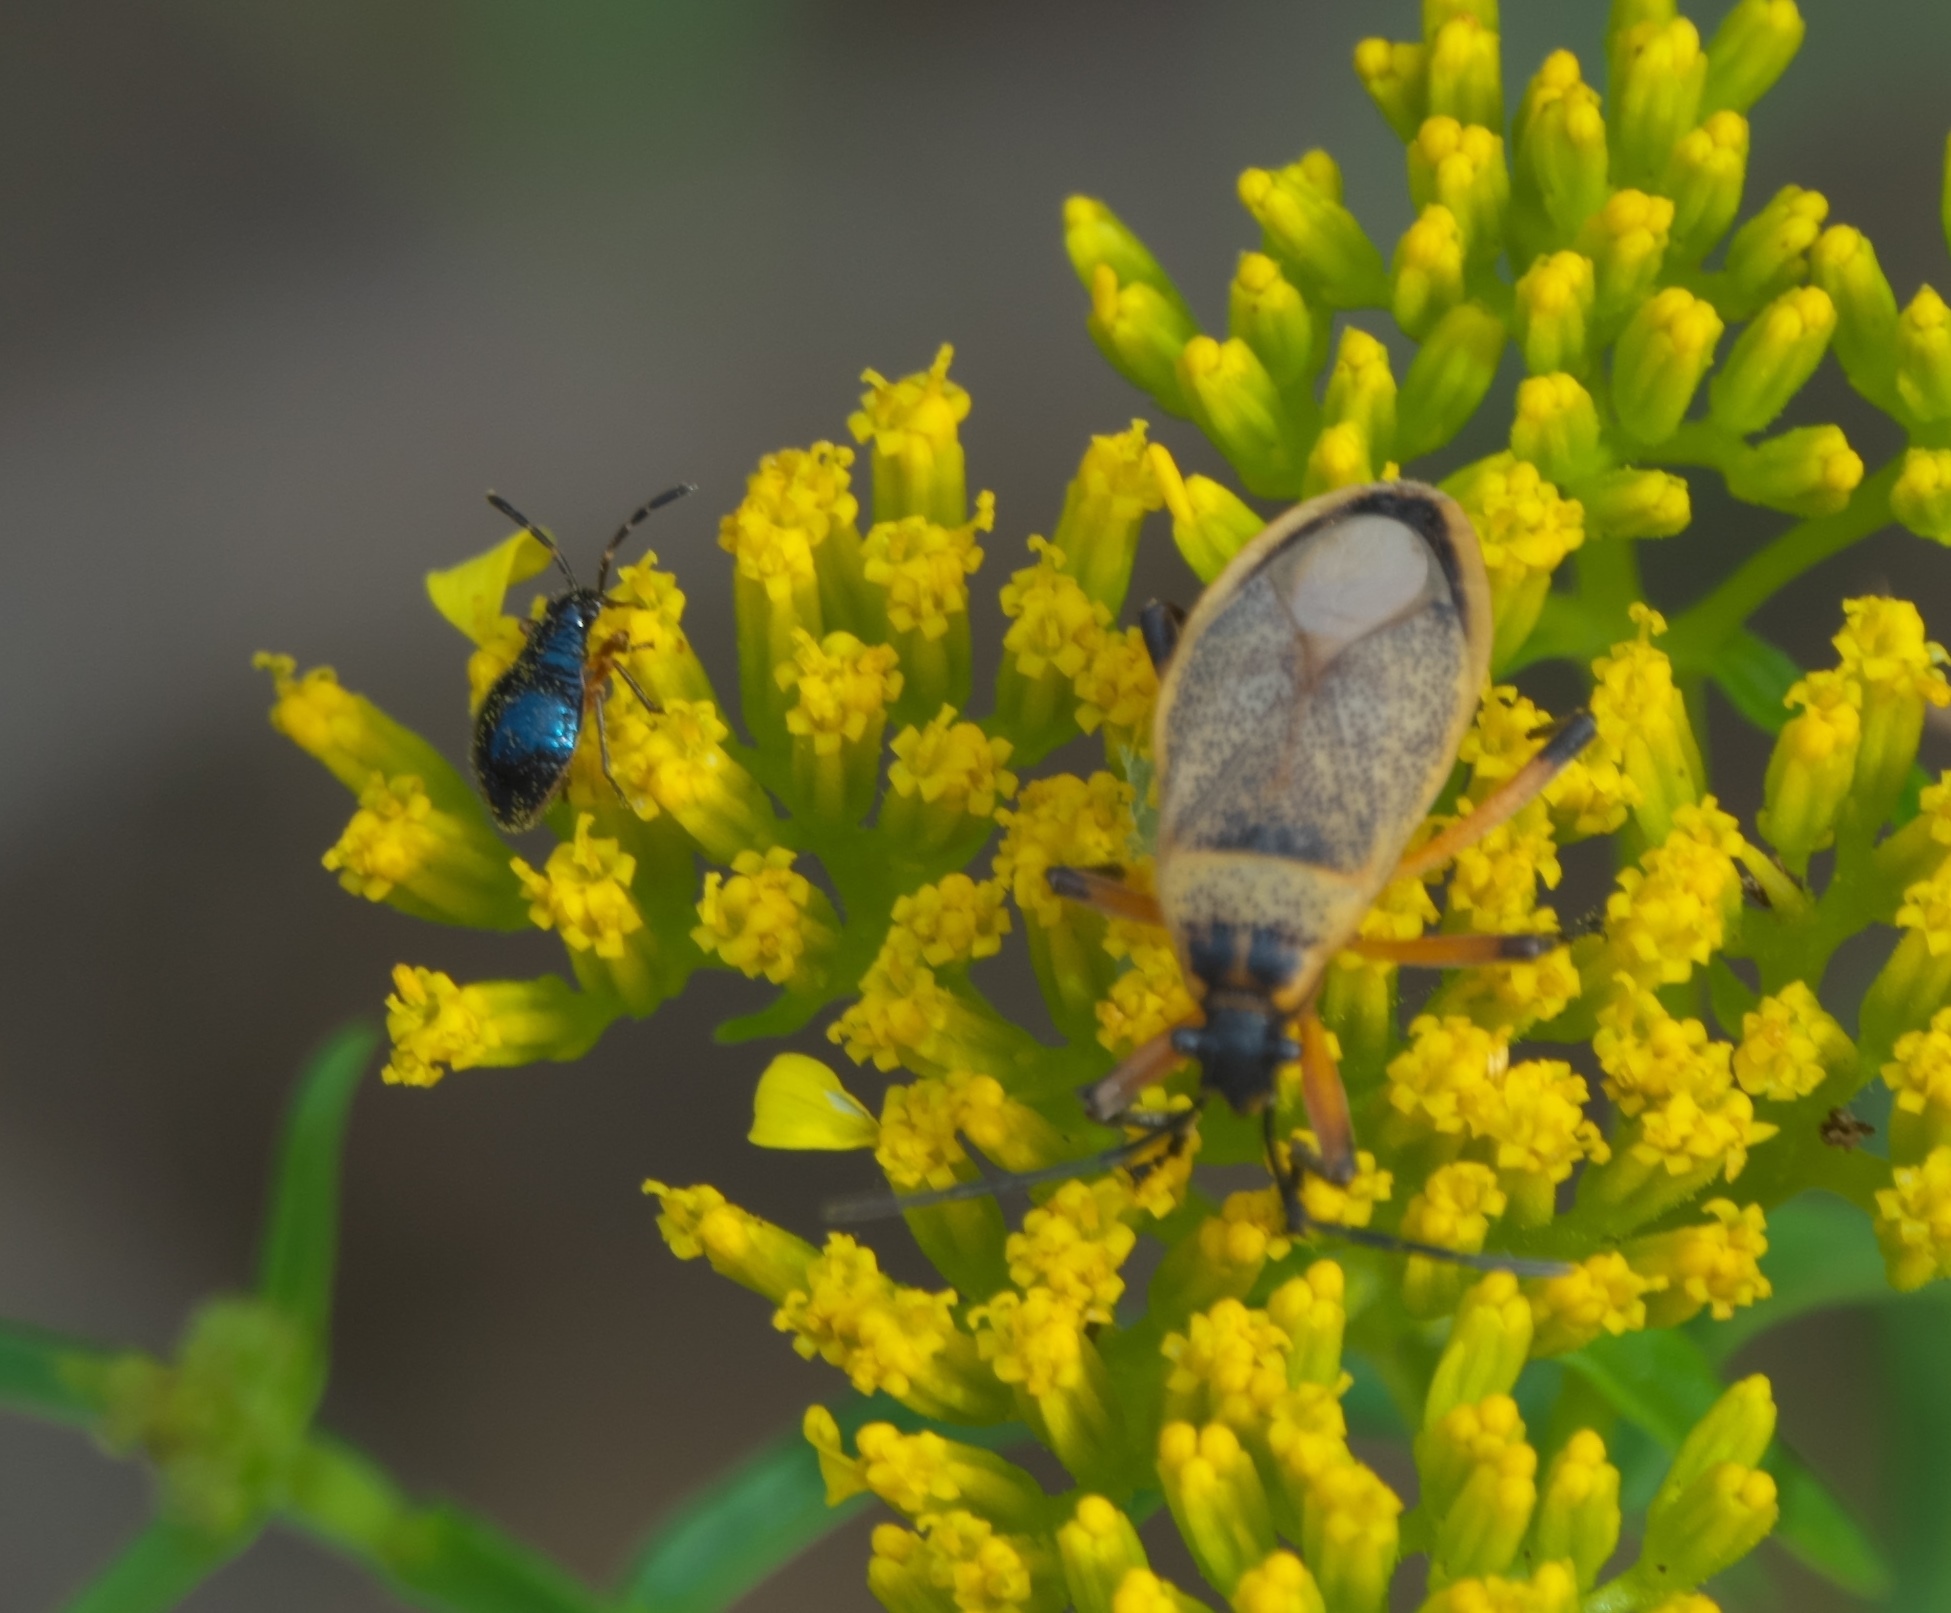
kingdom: Animalia
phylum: Arthropoda
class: Insecta
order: Hemiptera
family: Largidae
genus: Largus
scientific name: Largus davisi
